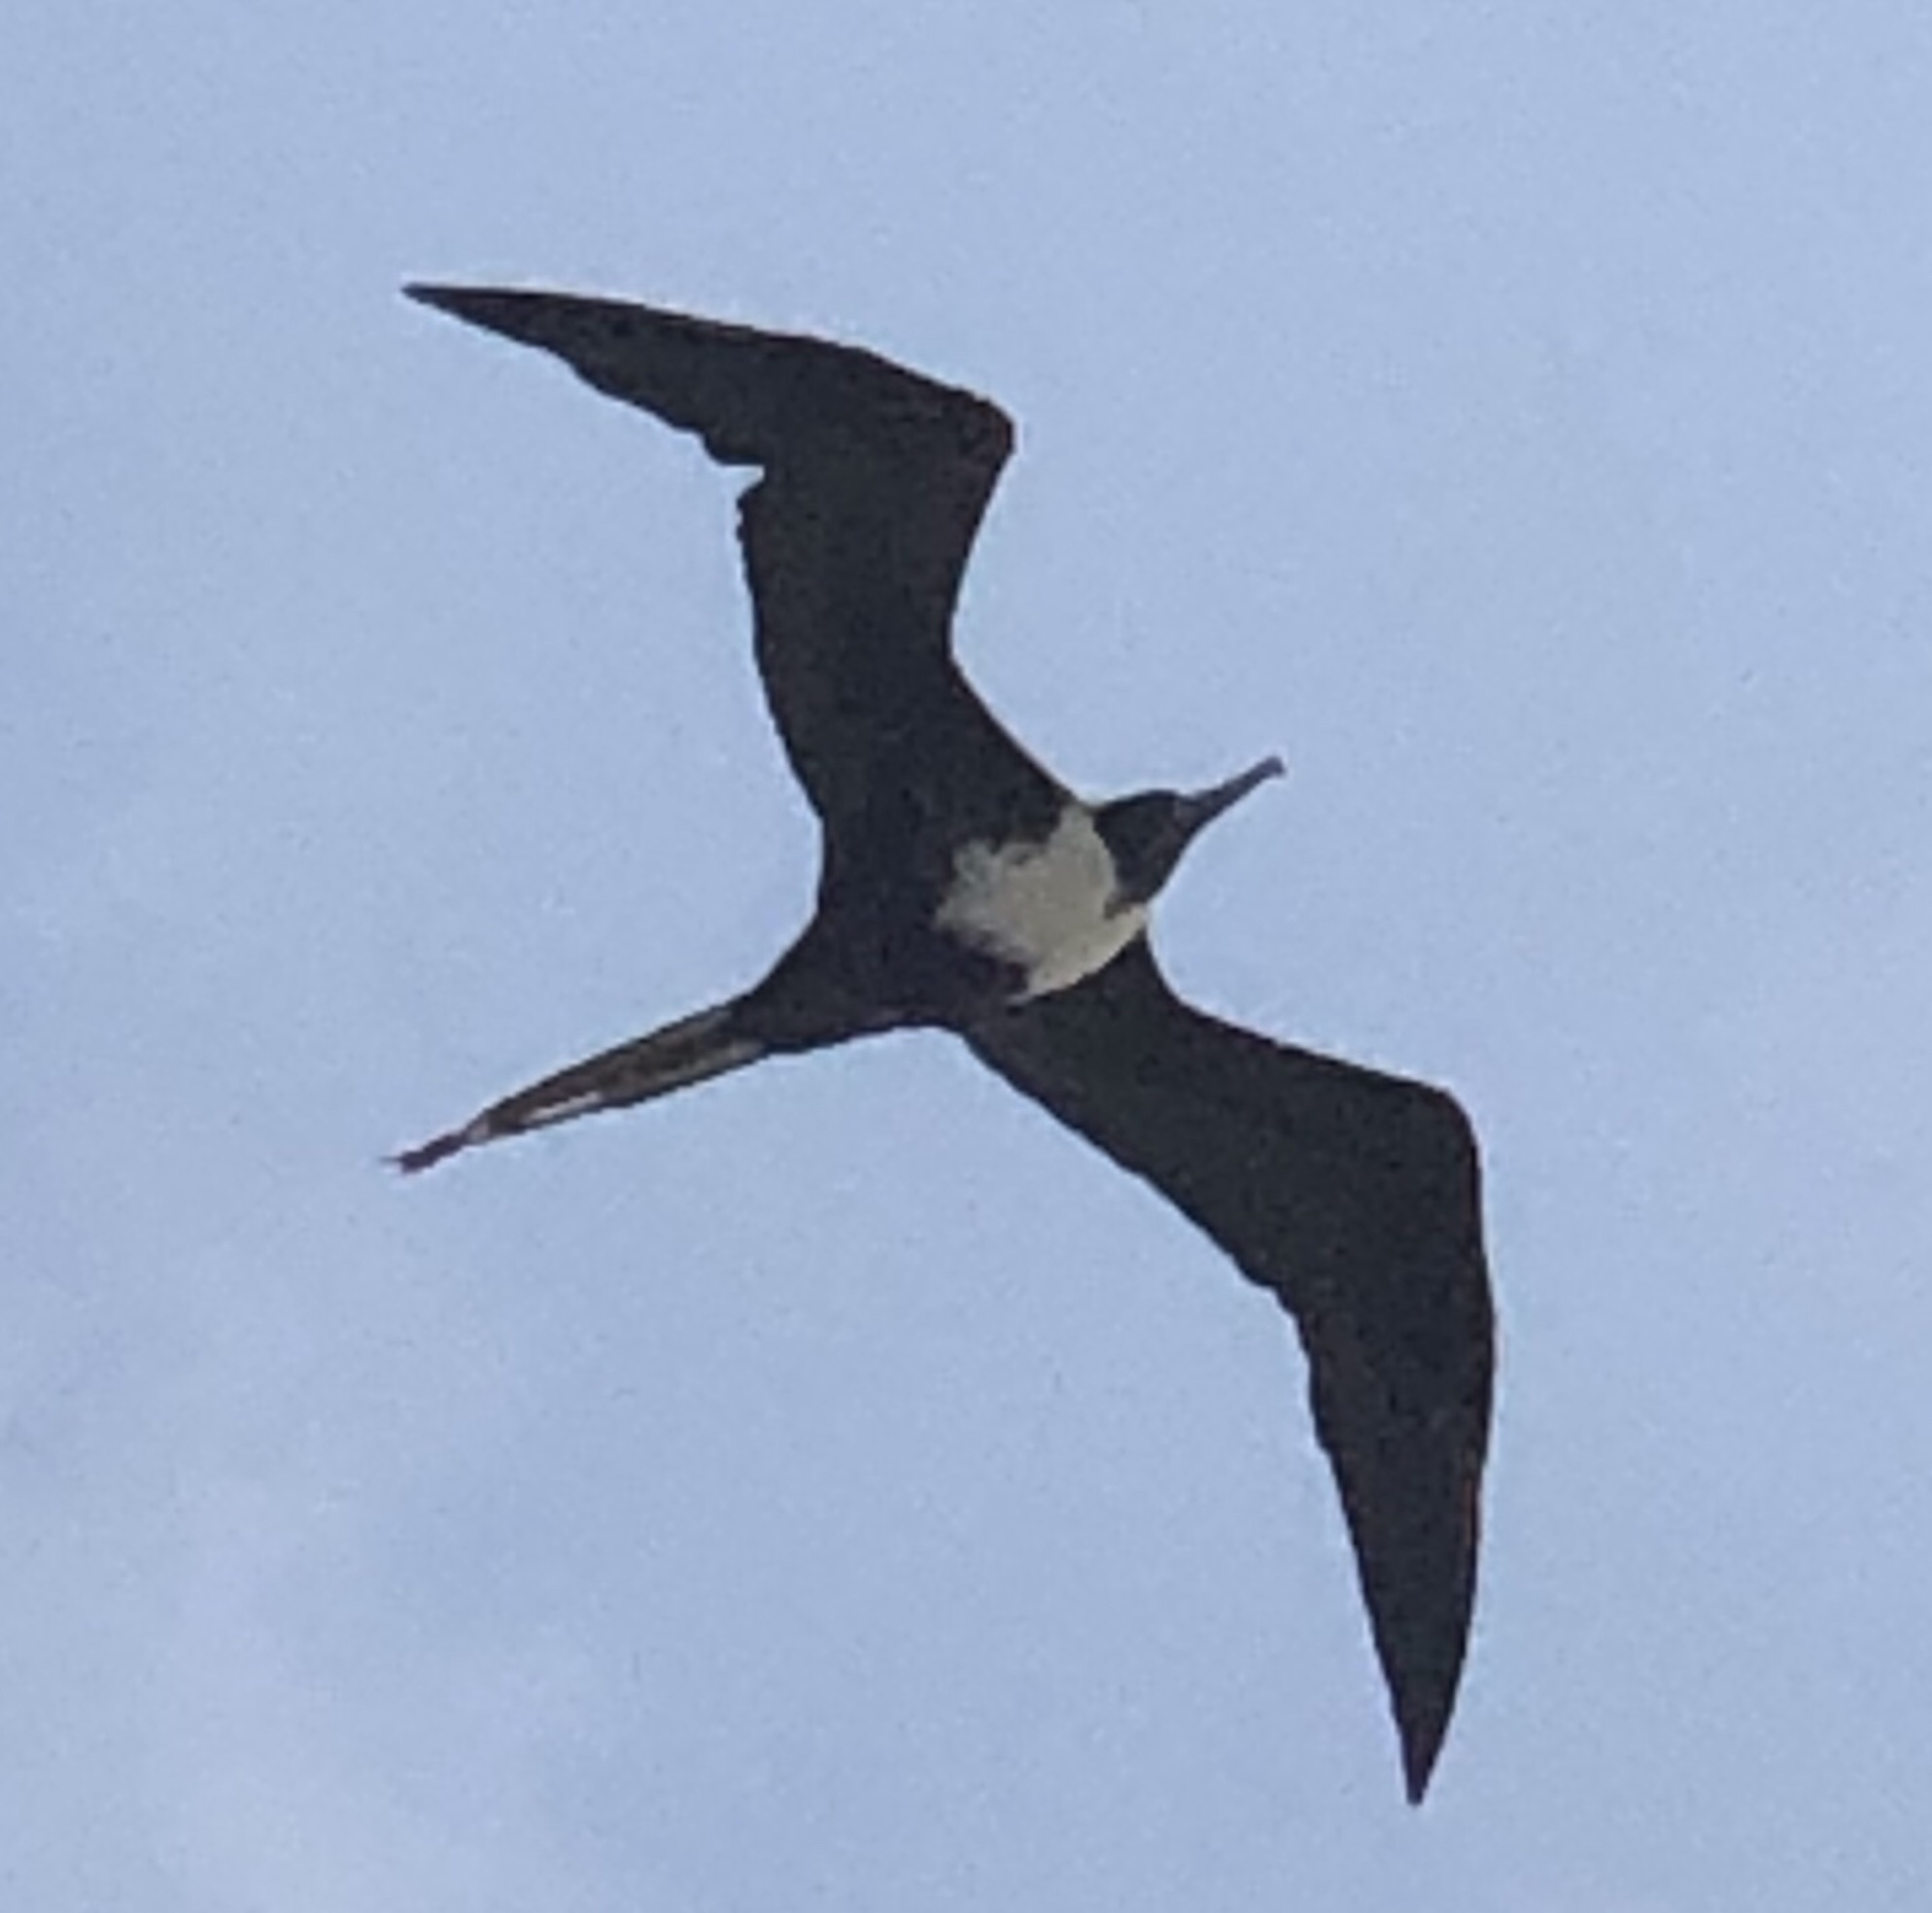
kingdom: Animalia
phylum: Chordata
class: Aves
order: Suliformes
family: Fregatidae
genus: Fregata
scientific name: Fregata magnificens
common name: Magnificent frigatebird
